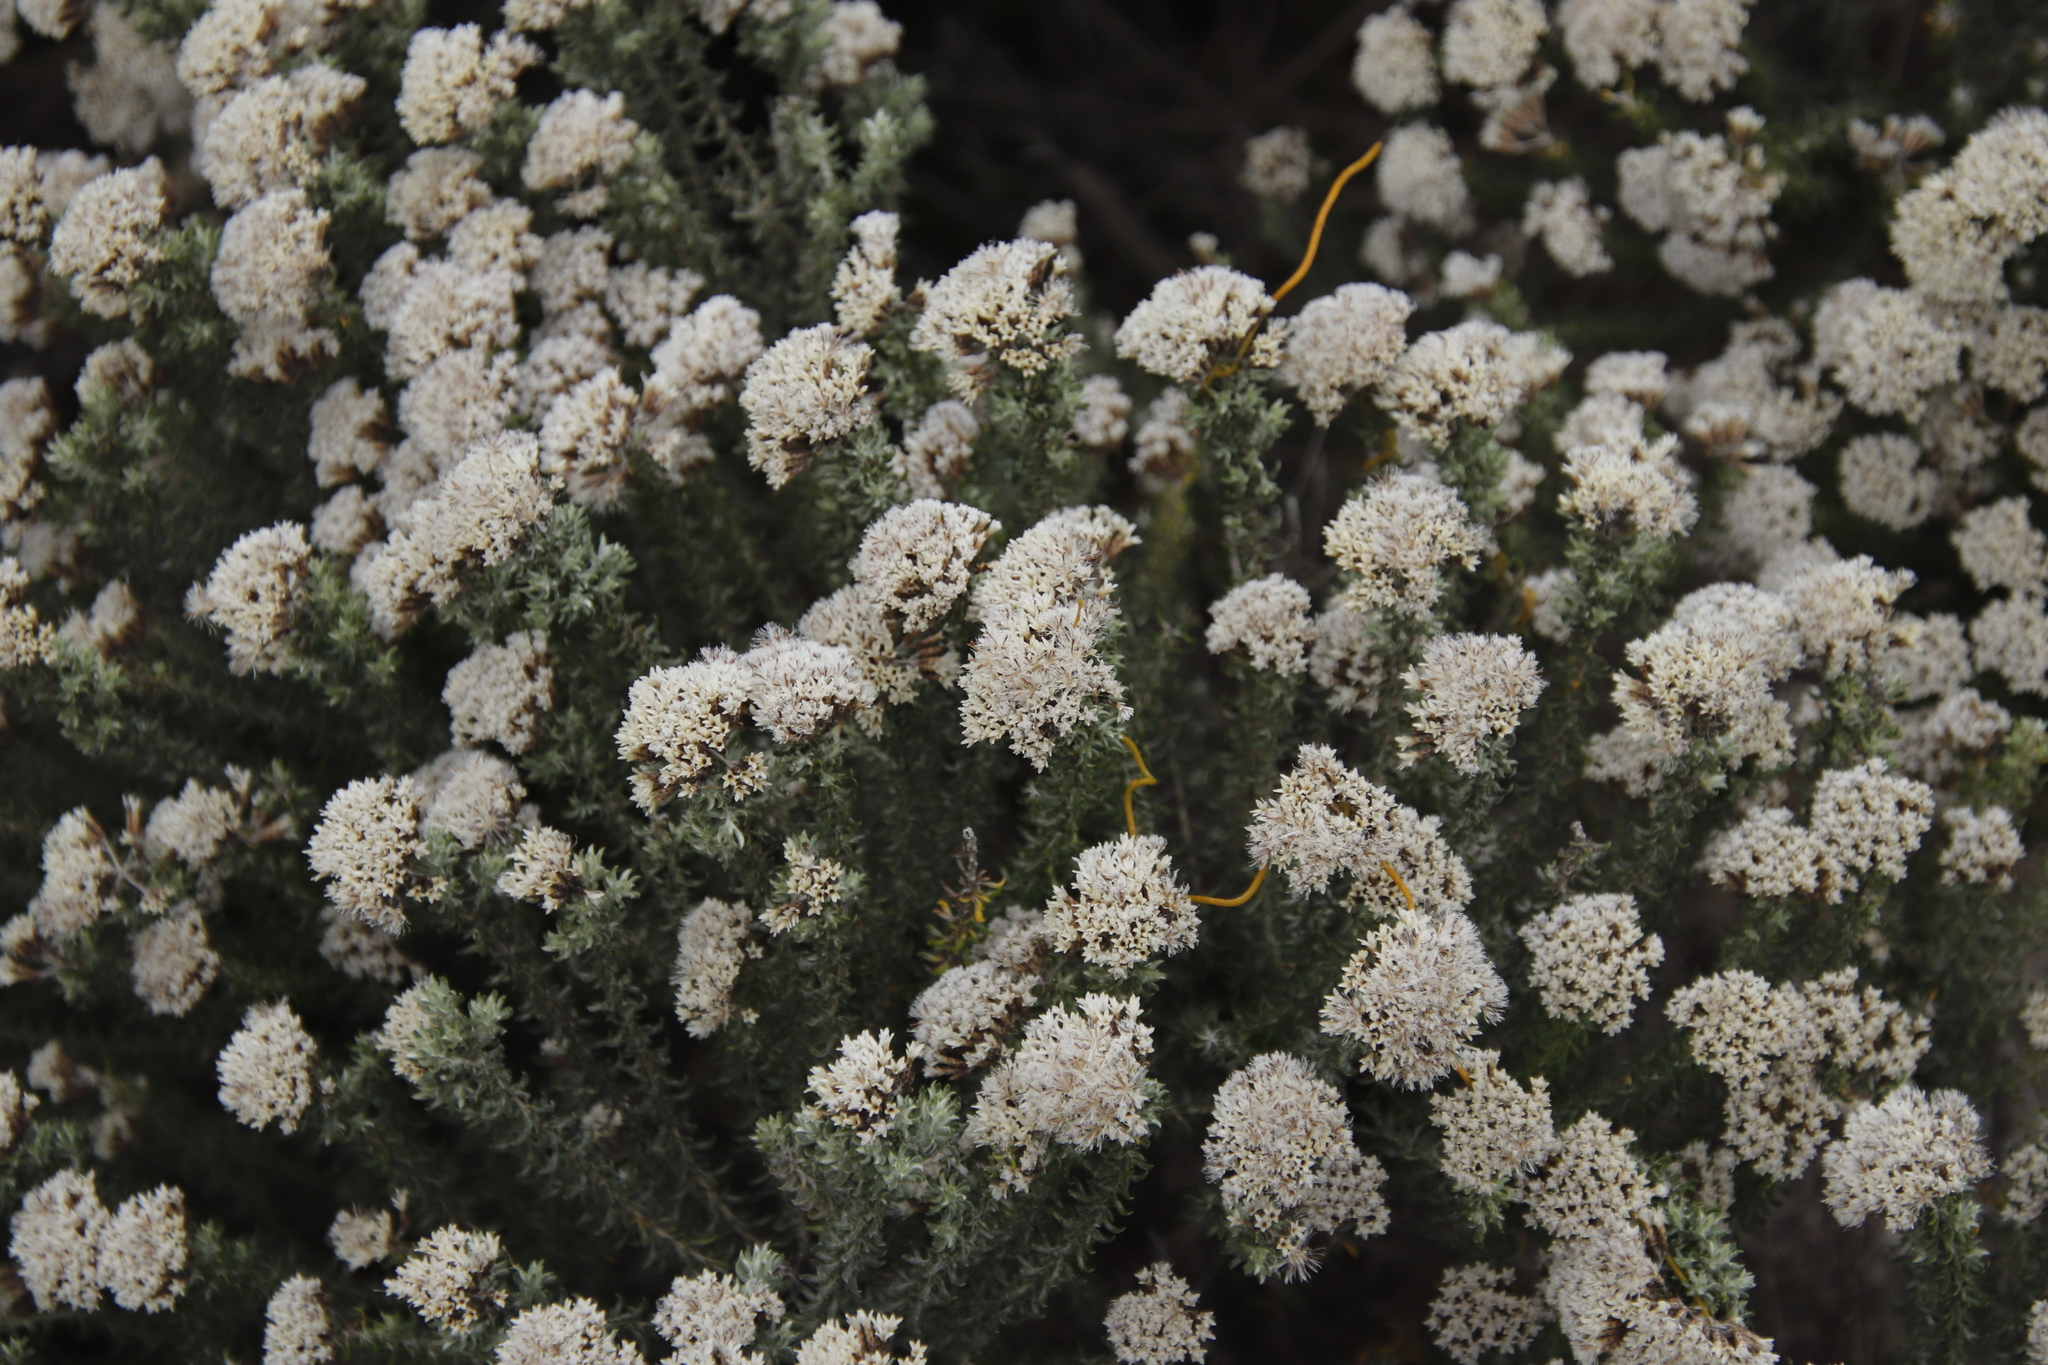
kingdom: Plantae
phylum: Tracheophyta
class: Magnoliopsida
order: Asterales
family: Asteraceae
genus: Metalasia
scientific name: Metalasia muricata
